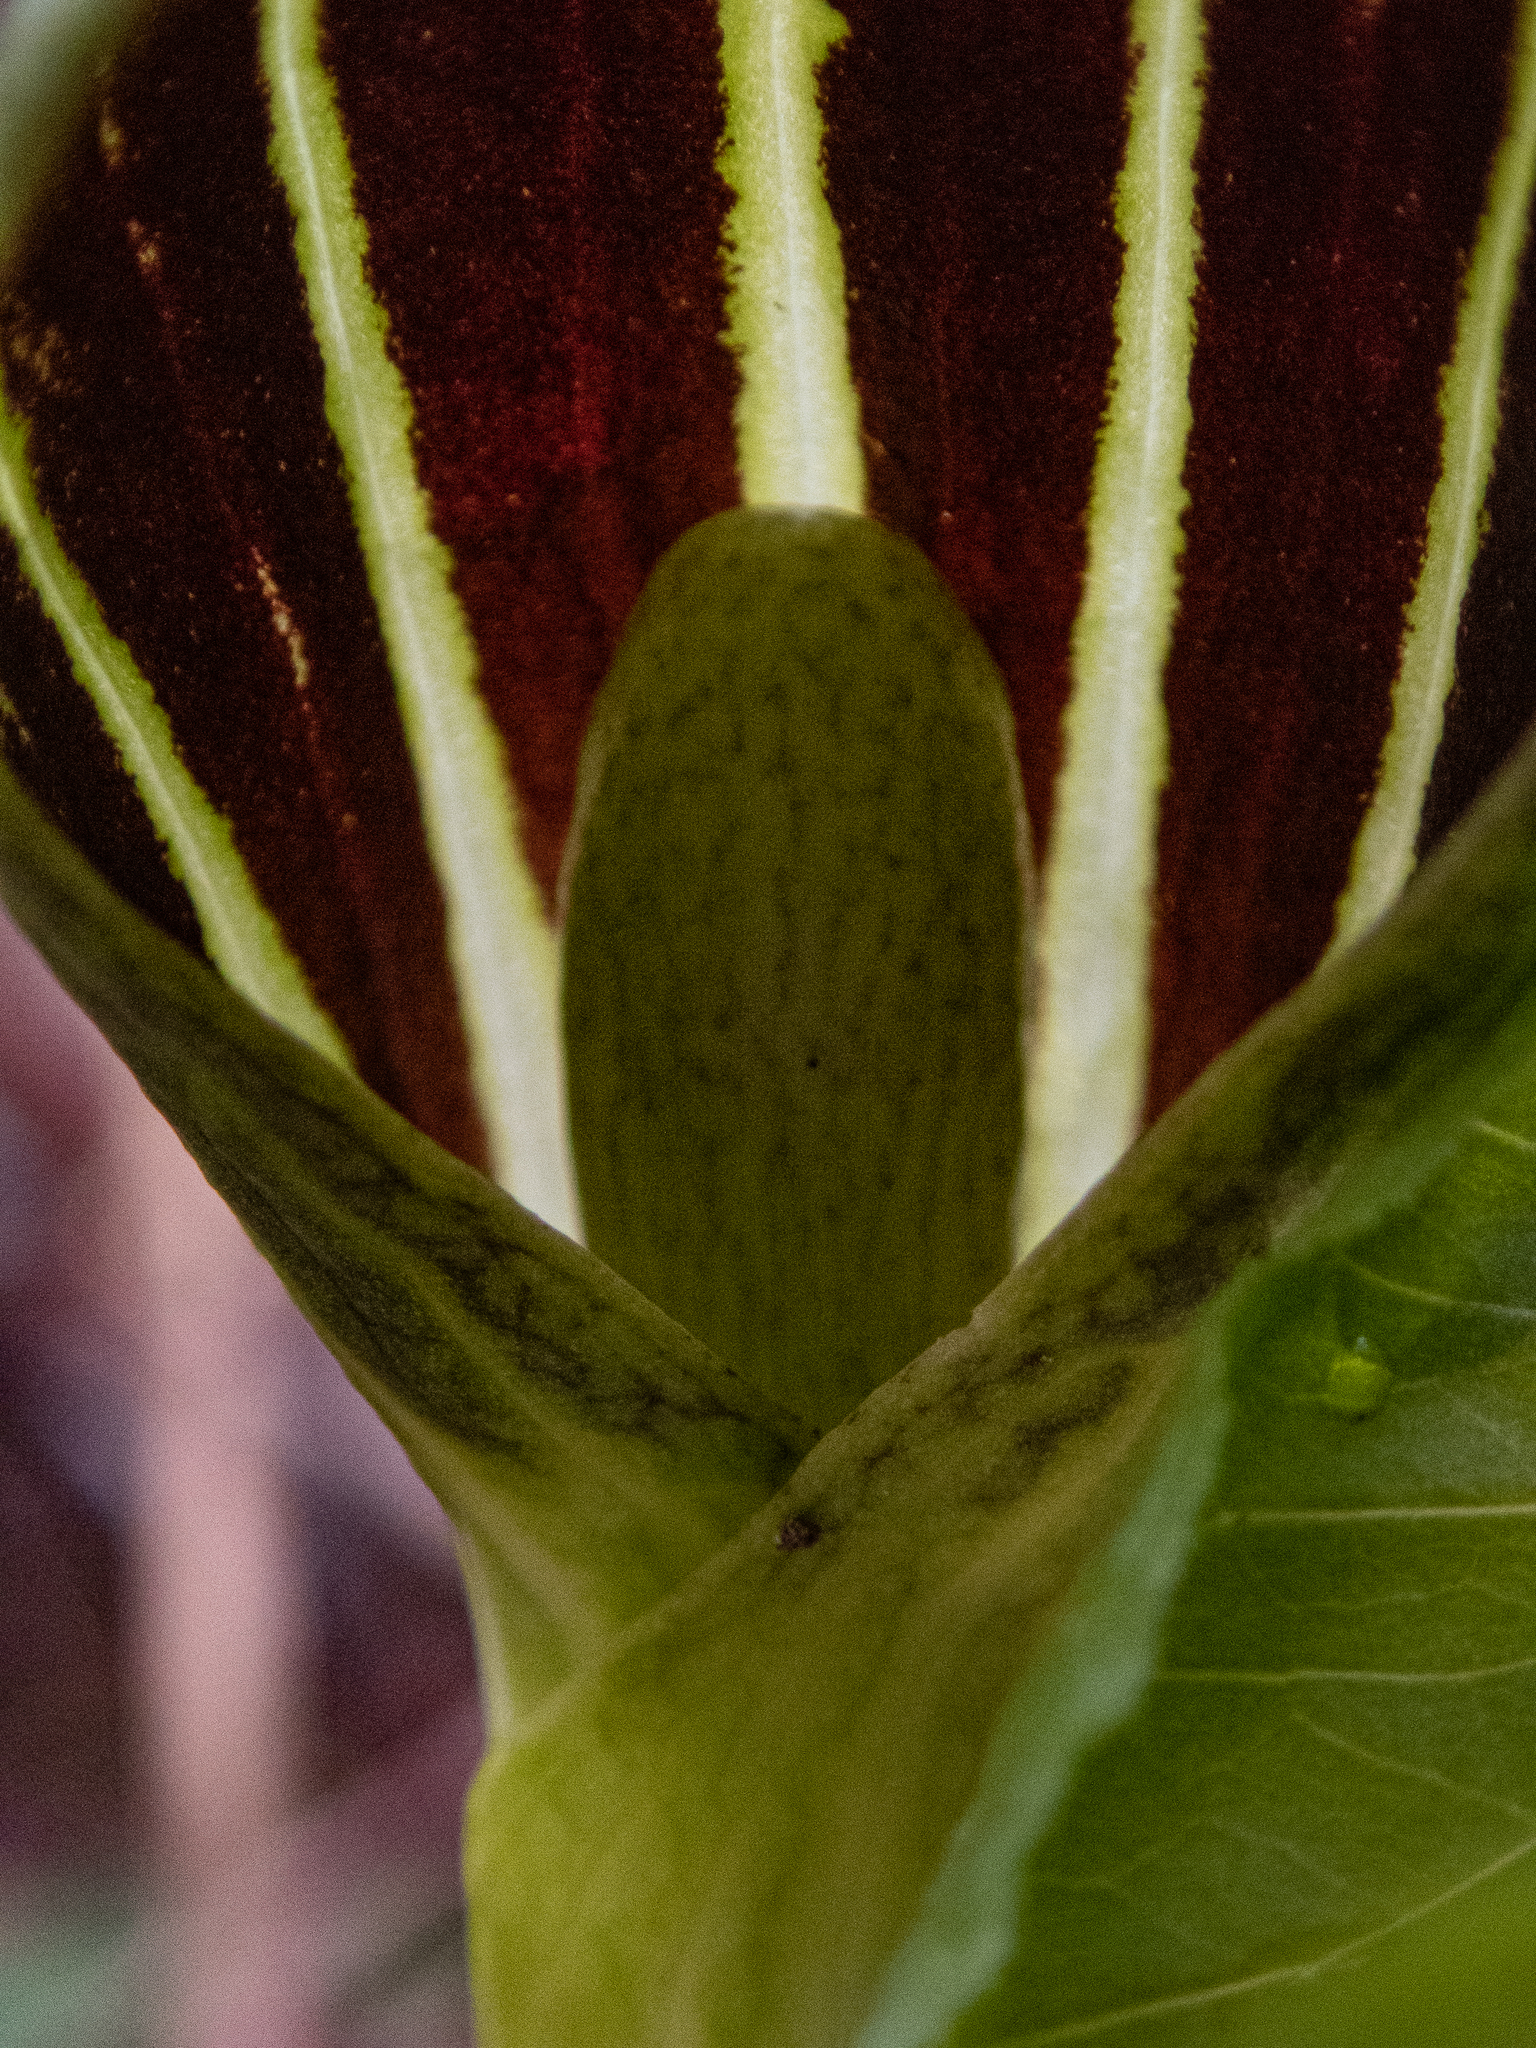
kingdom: Plantae
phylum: Tracheophyta
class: Liliopsida
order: Alismatales
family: Araceae
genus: Arisaema
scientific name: Arisaema triphyllum
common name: Jack-in-the-pulpit
